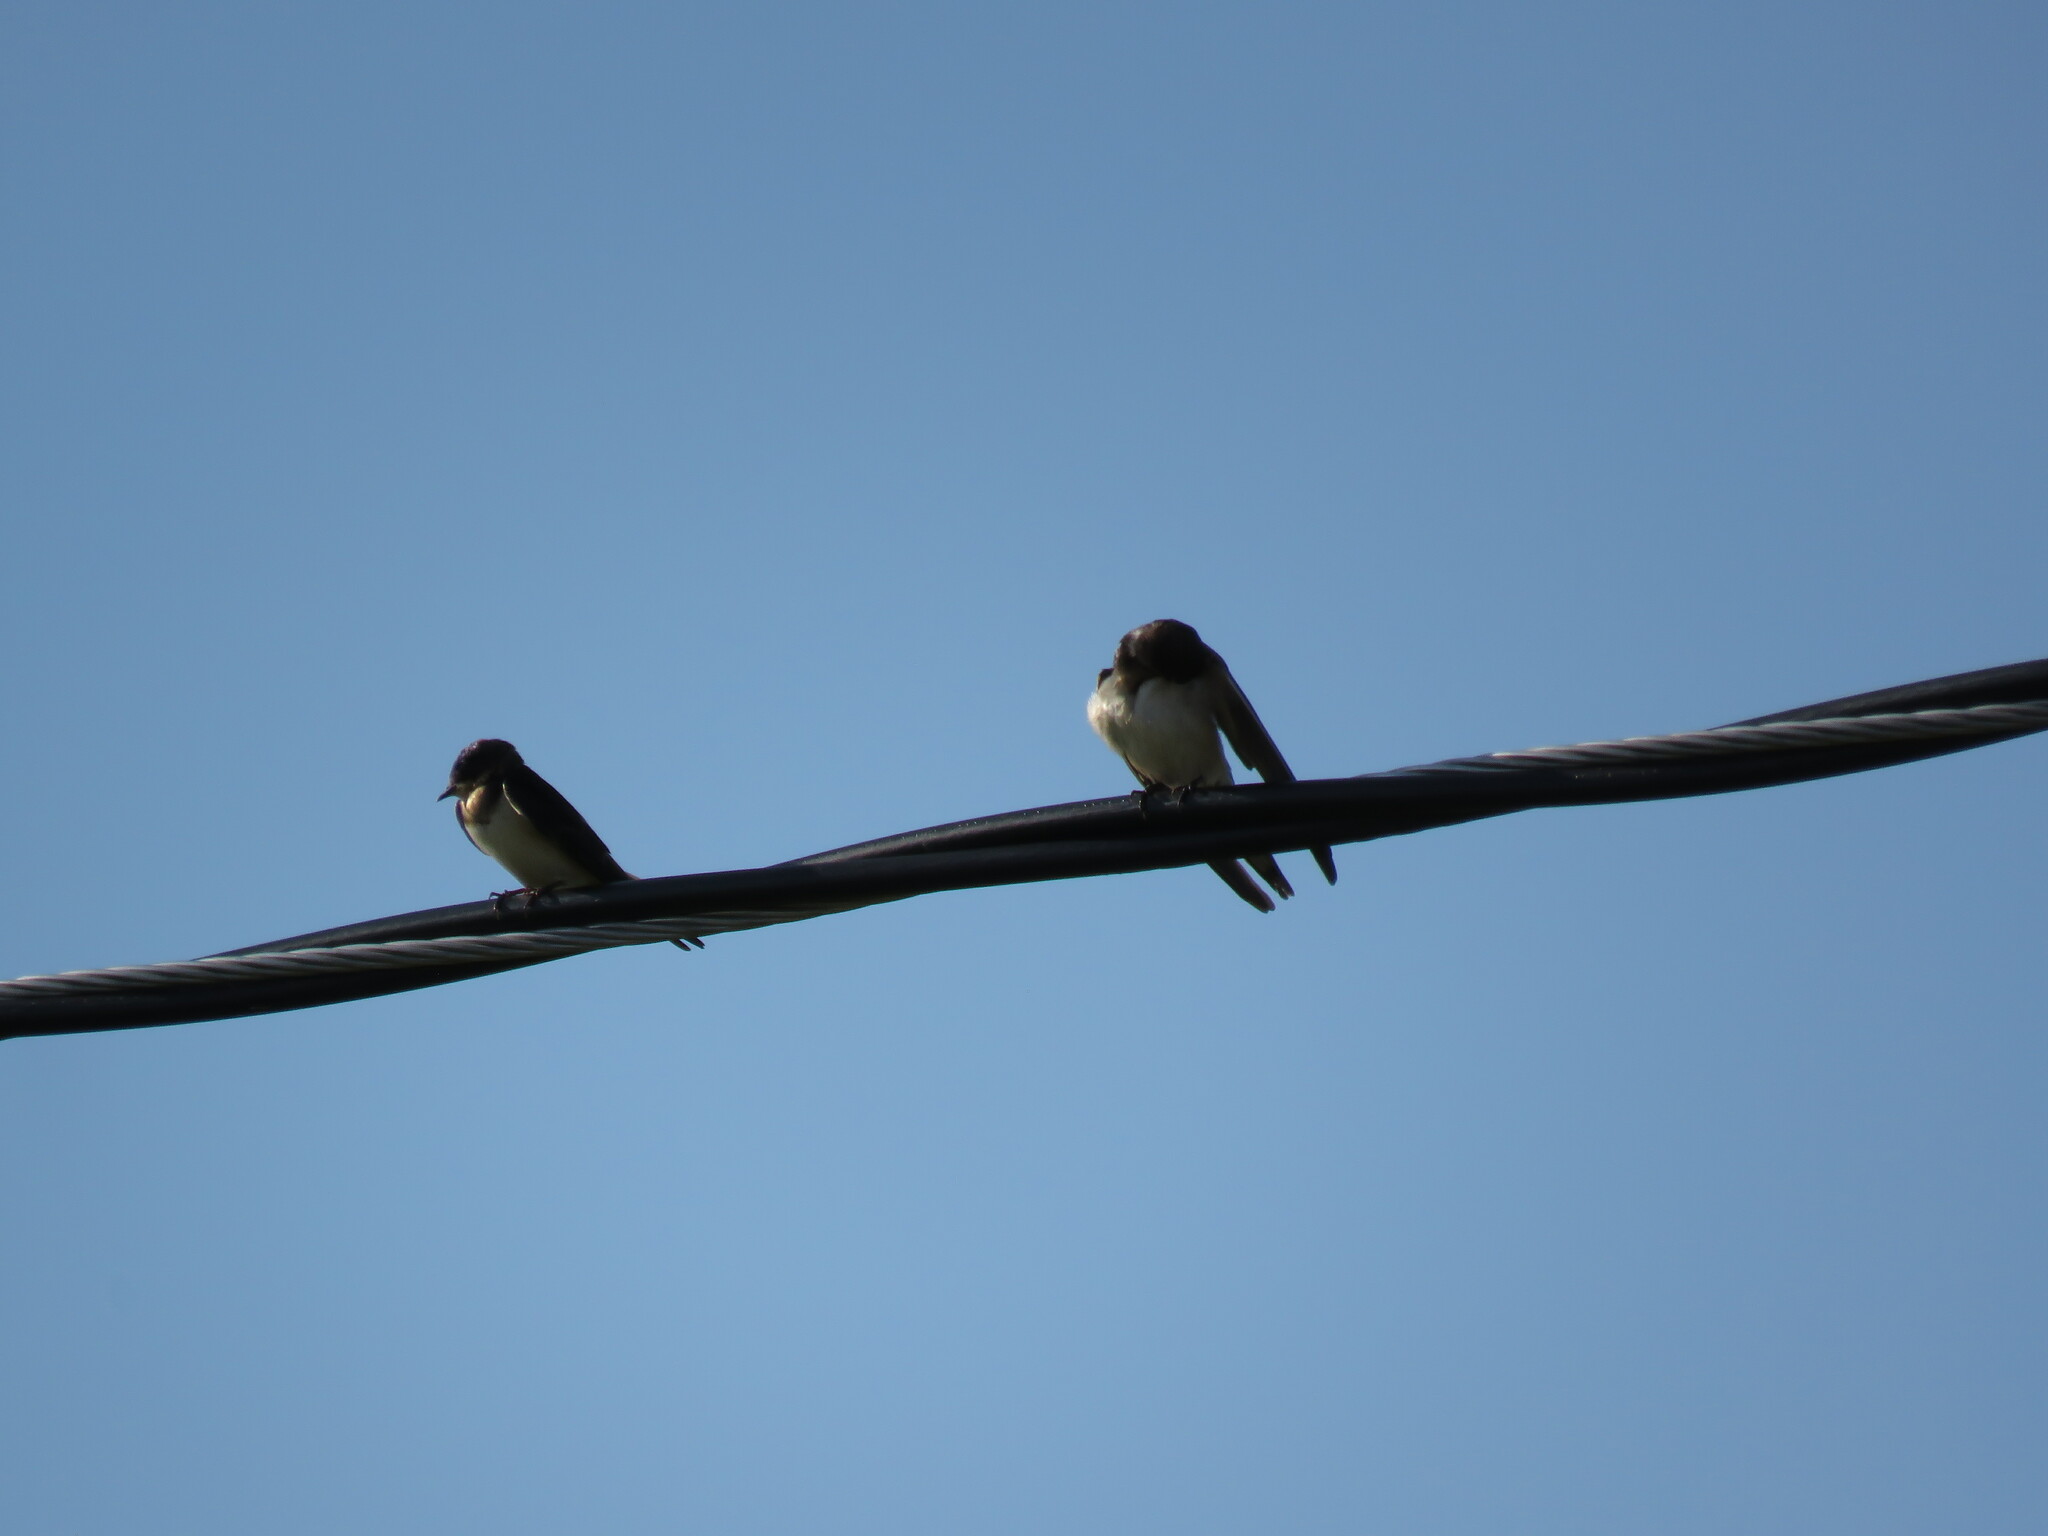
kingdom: Animalia
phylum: Chordata
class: Aves
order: Passeriformes
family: Hirundinidae
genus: Riparia
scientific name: Riparia riparia
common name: Sand martin
